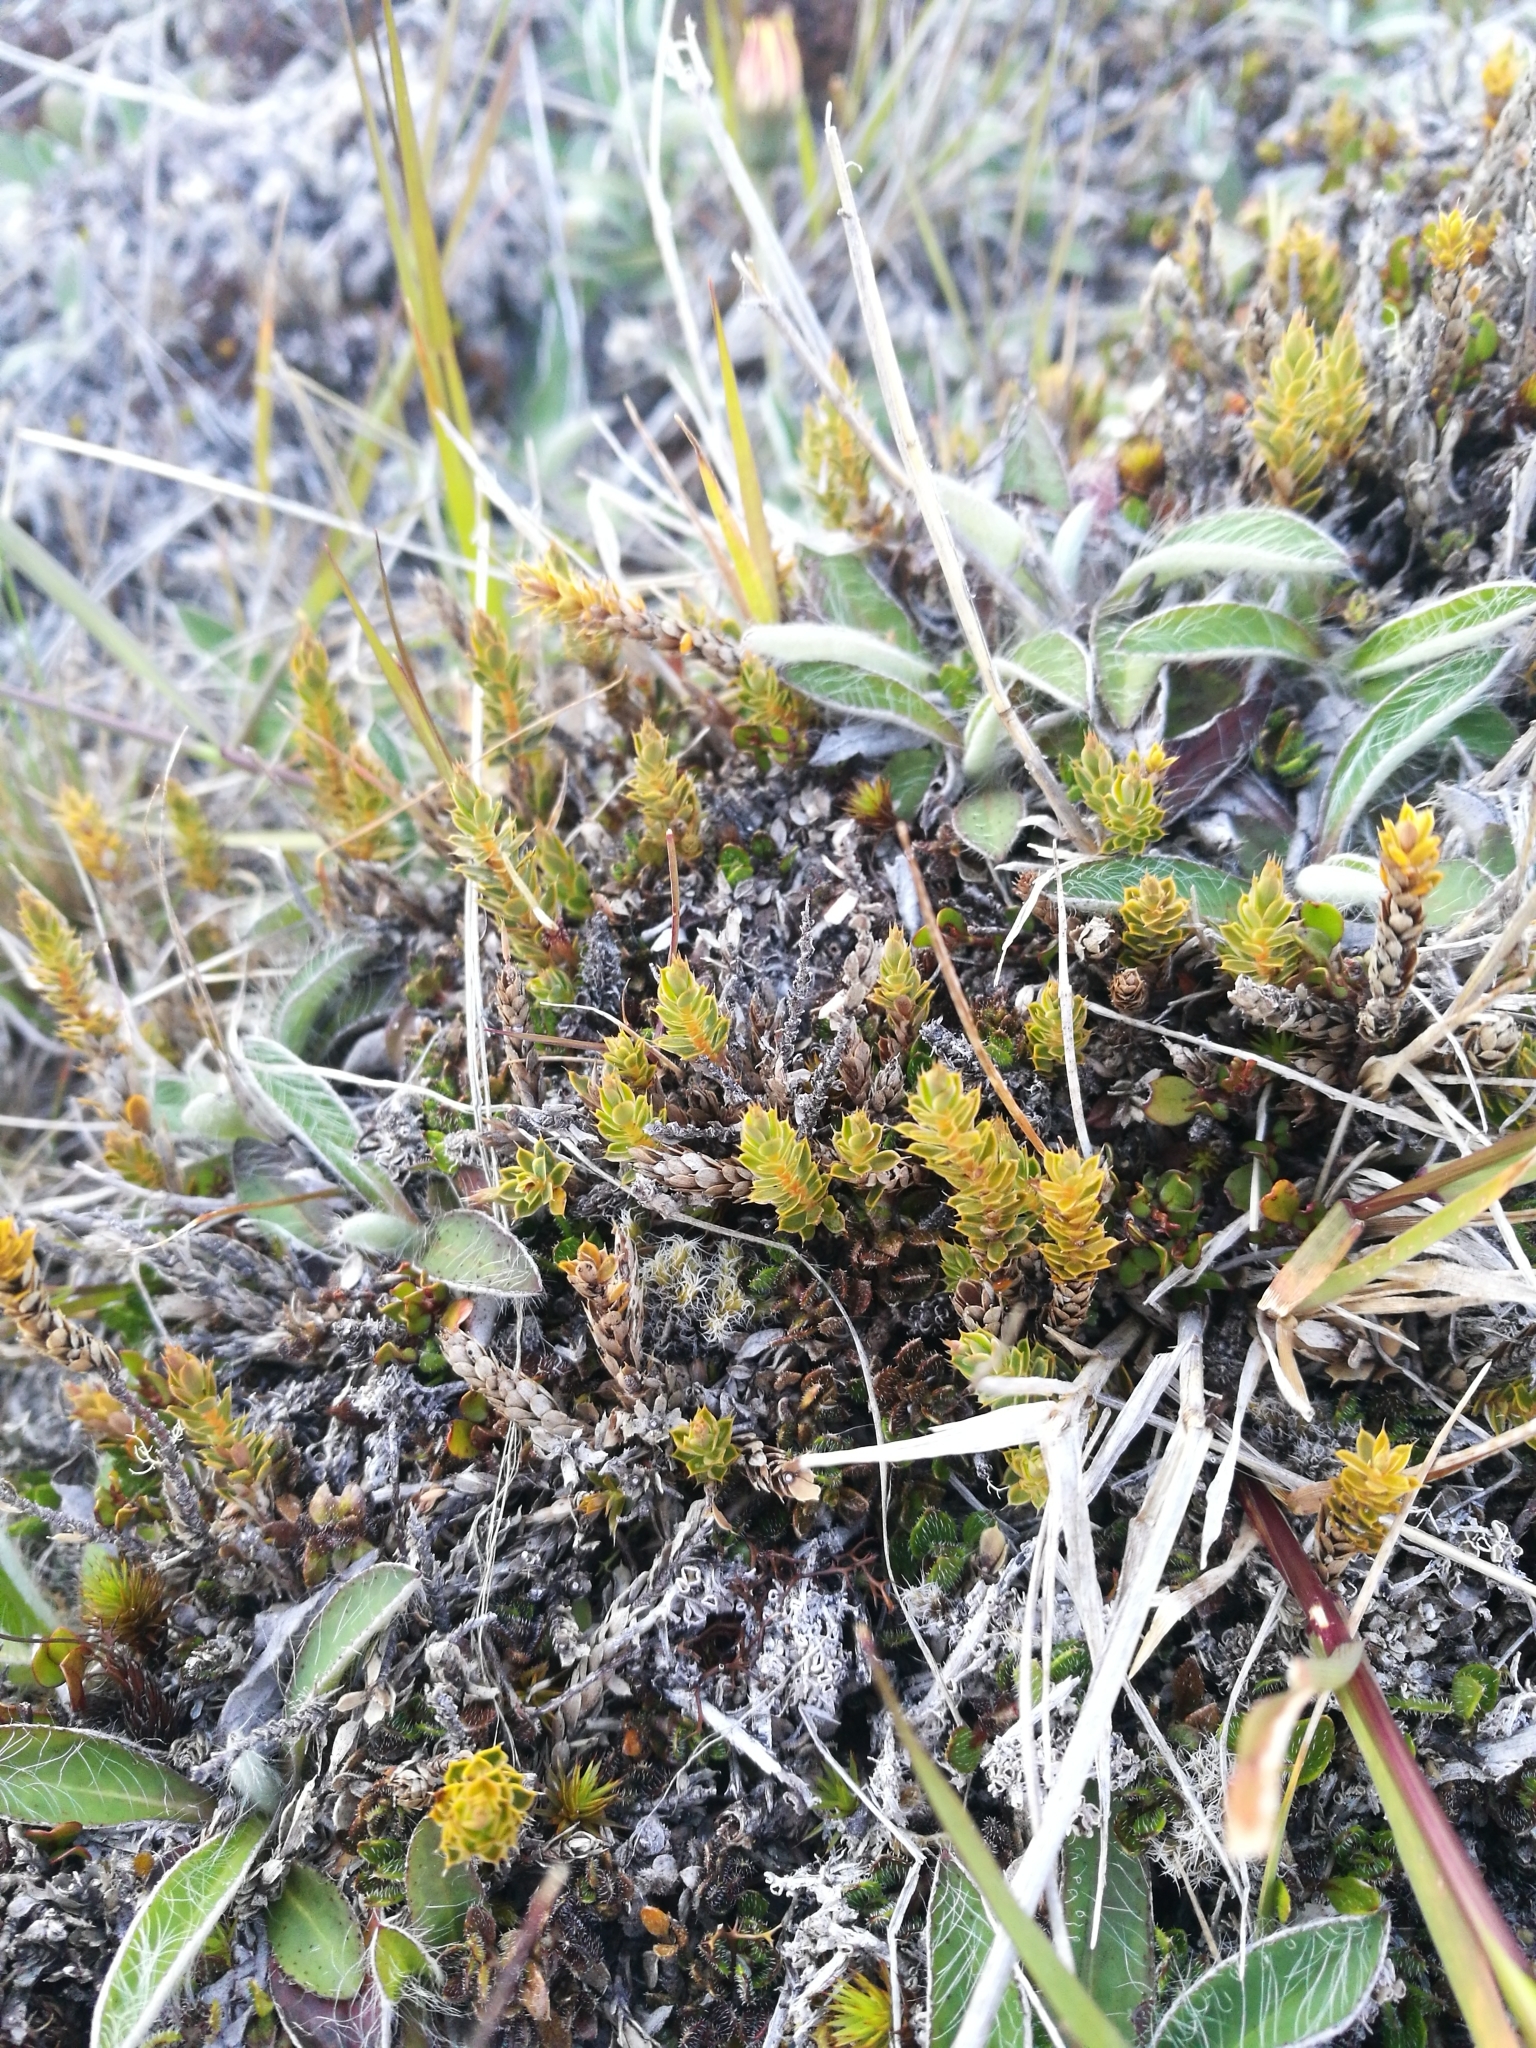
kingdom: Plantae
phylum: Tracheophyta
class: Magnoliopsida
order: Ericales
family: Ericaceae
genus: Styphelia
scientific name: Styphelia nesophila
